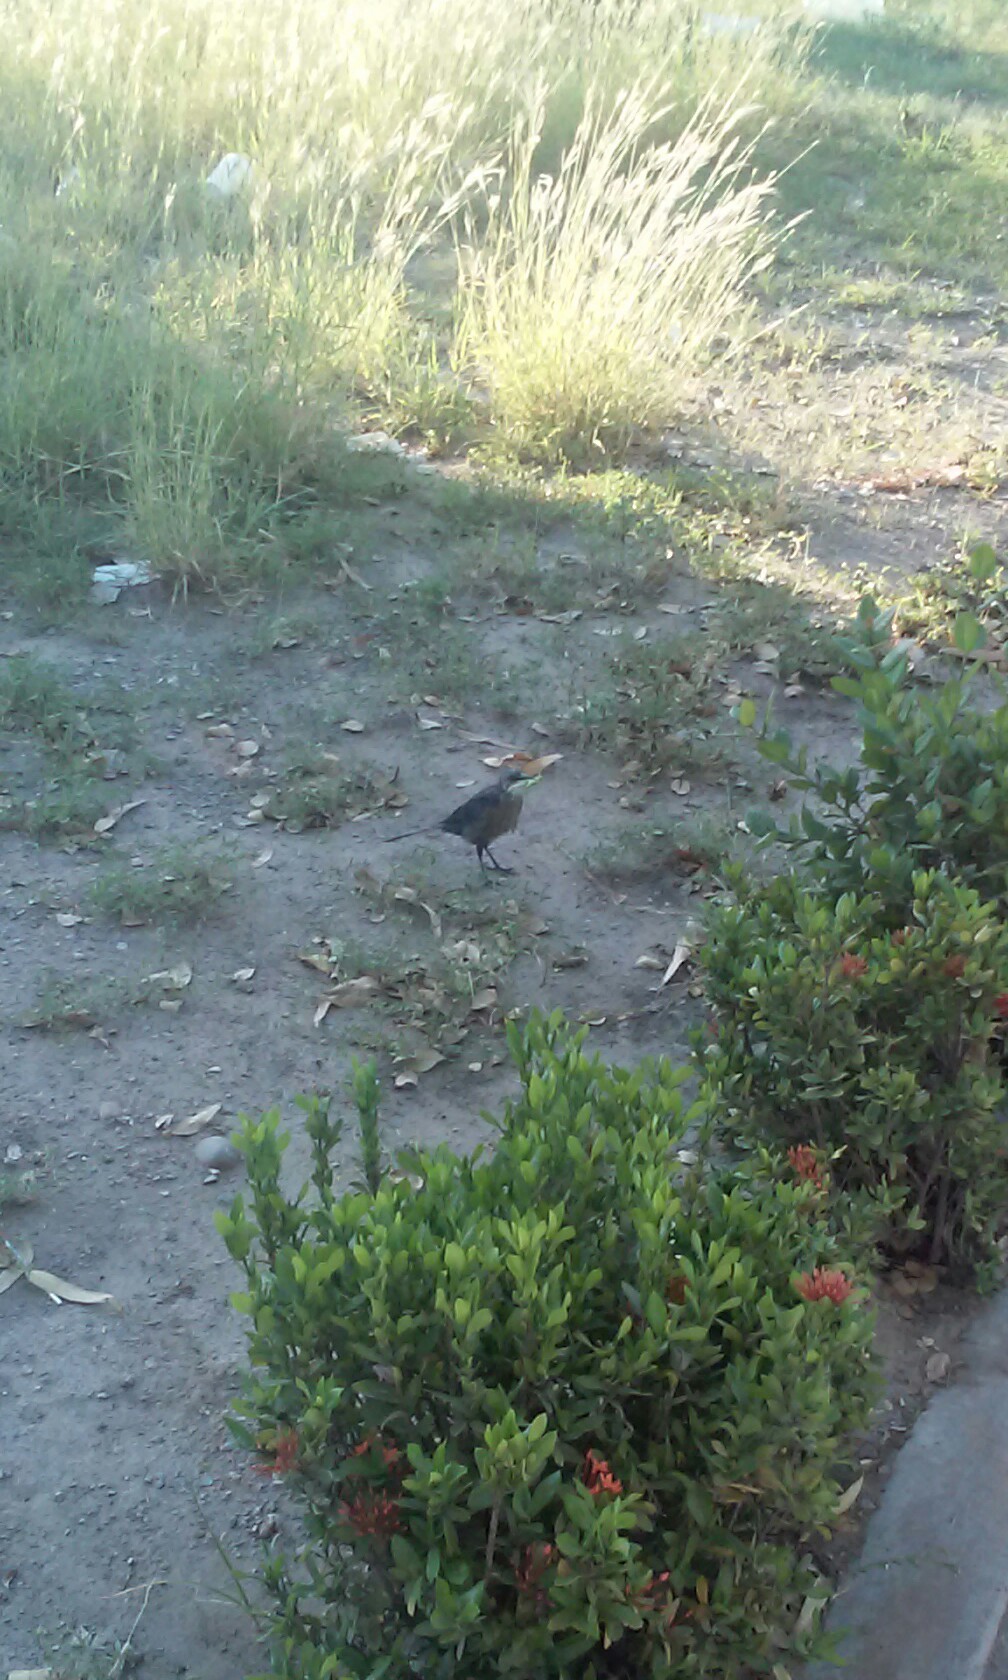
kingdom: Animalia
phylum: Chordata
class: Aves
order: Passeriformes
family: Icteridae
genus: Quiscalus
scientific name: Quiscalus mexicanus
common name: Great-tailed grackle
